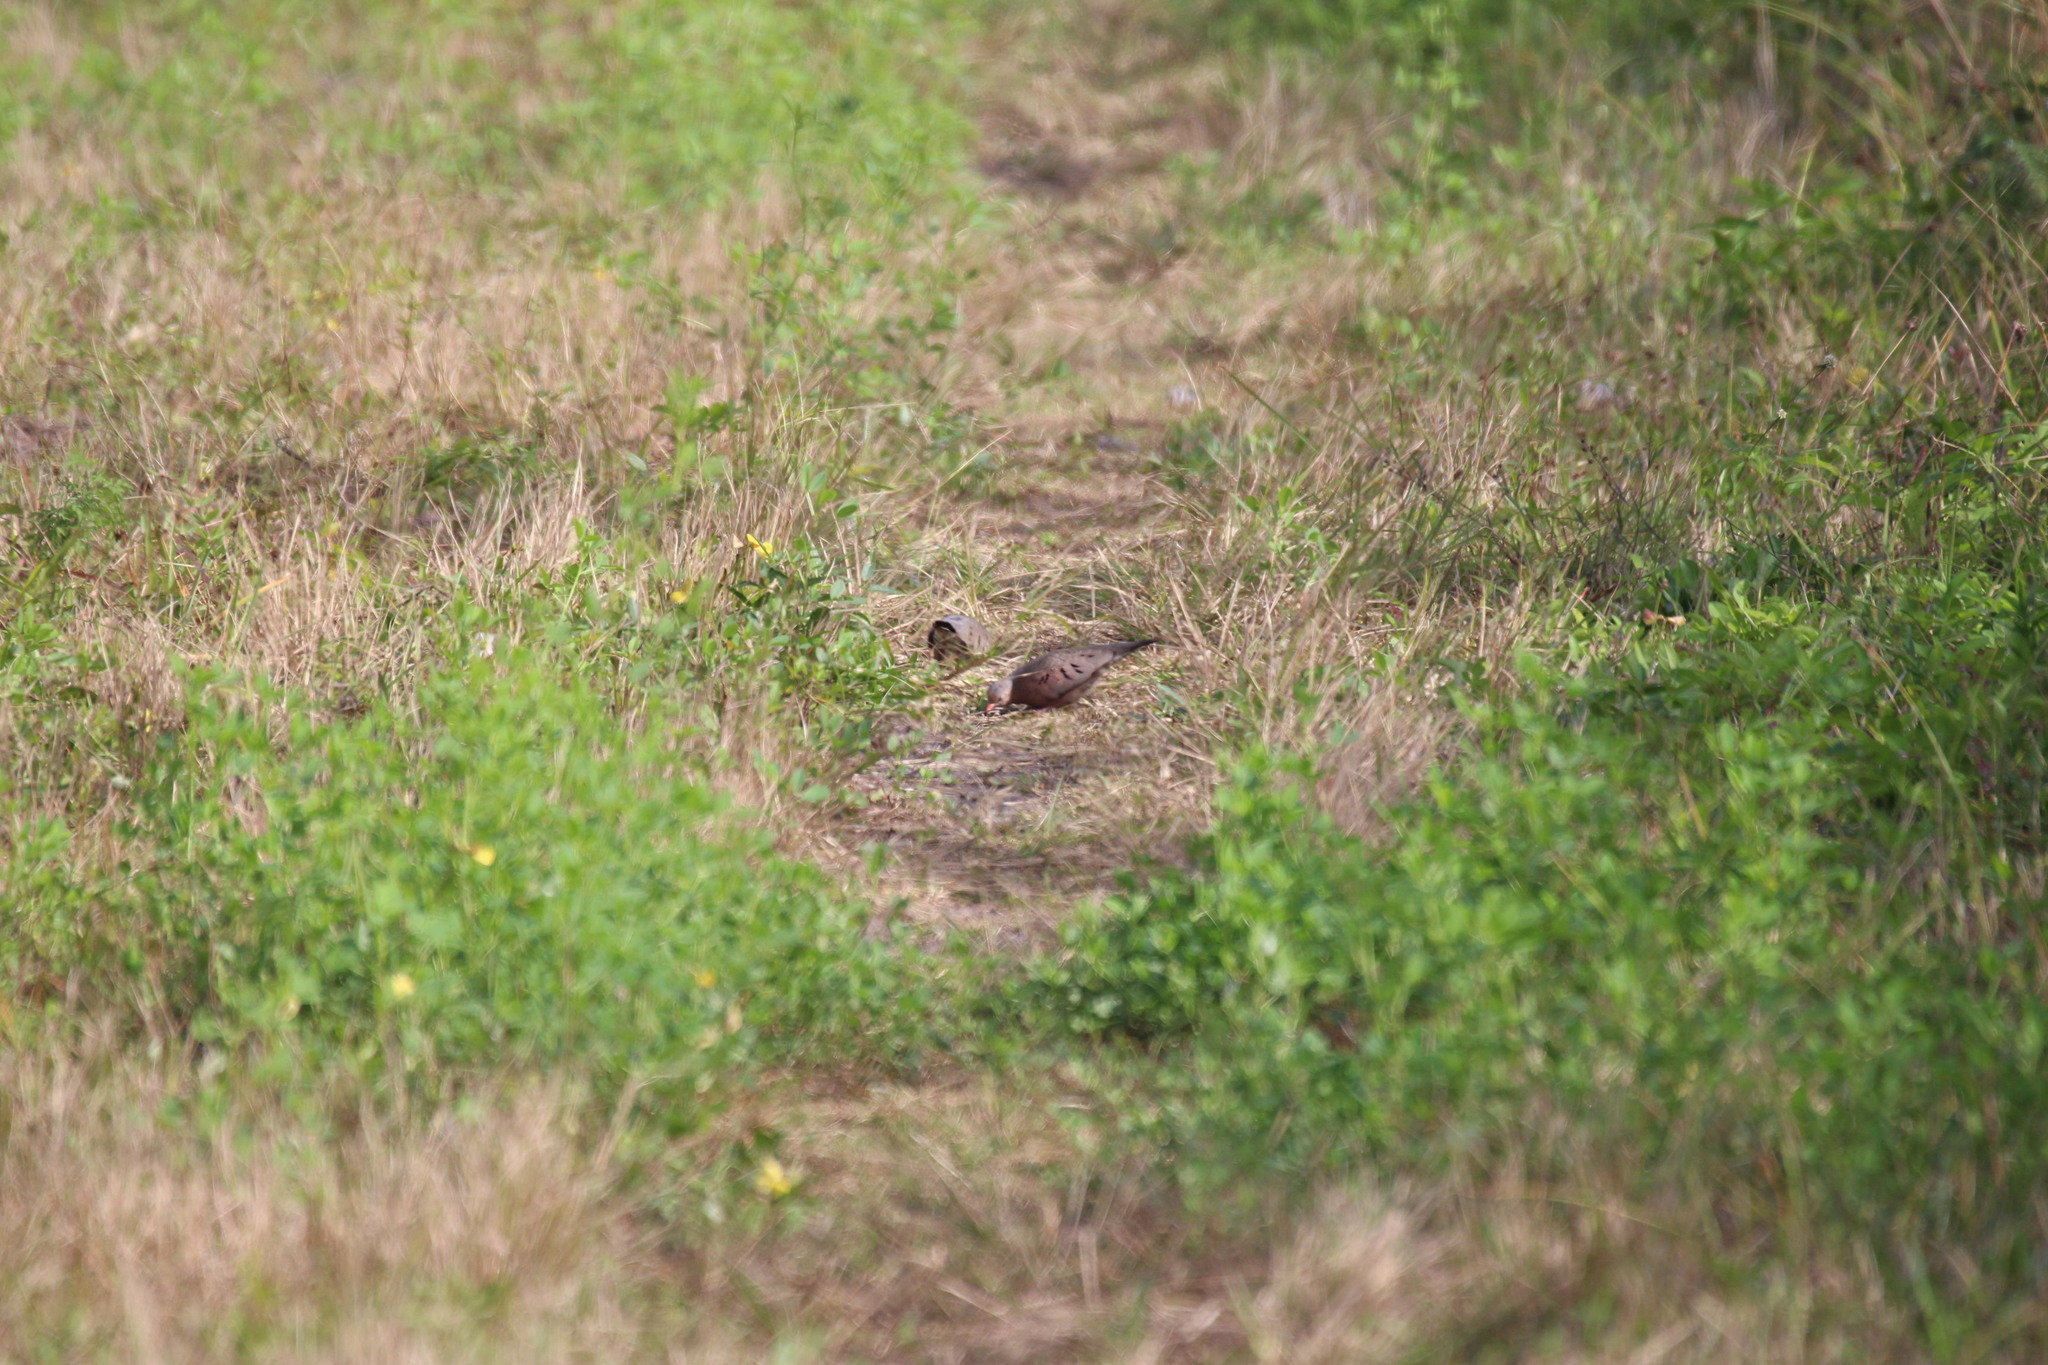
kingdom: Animalia
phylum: Chordata
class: Aves
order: Columbiformes
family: Columbidae
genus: Columbina
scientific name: Columbina passerina
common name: Common ground-dove
